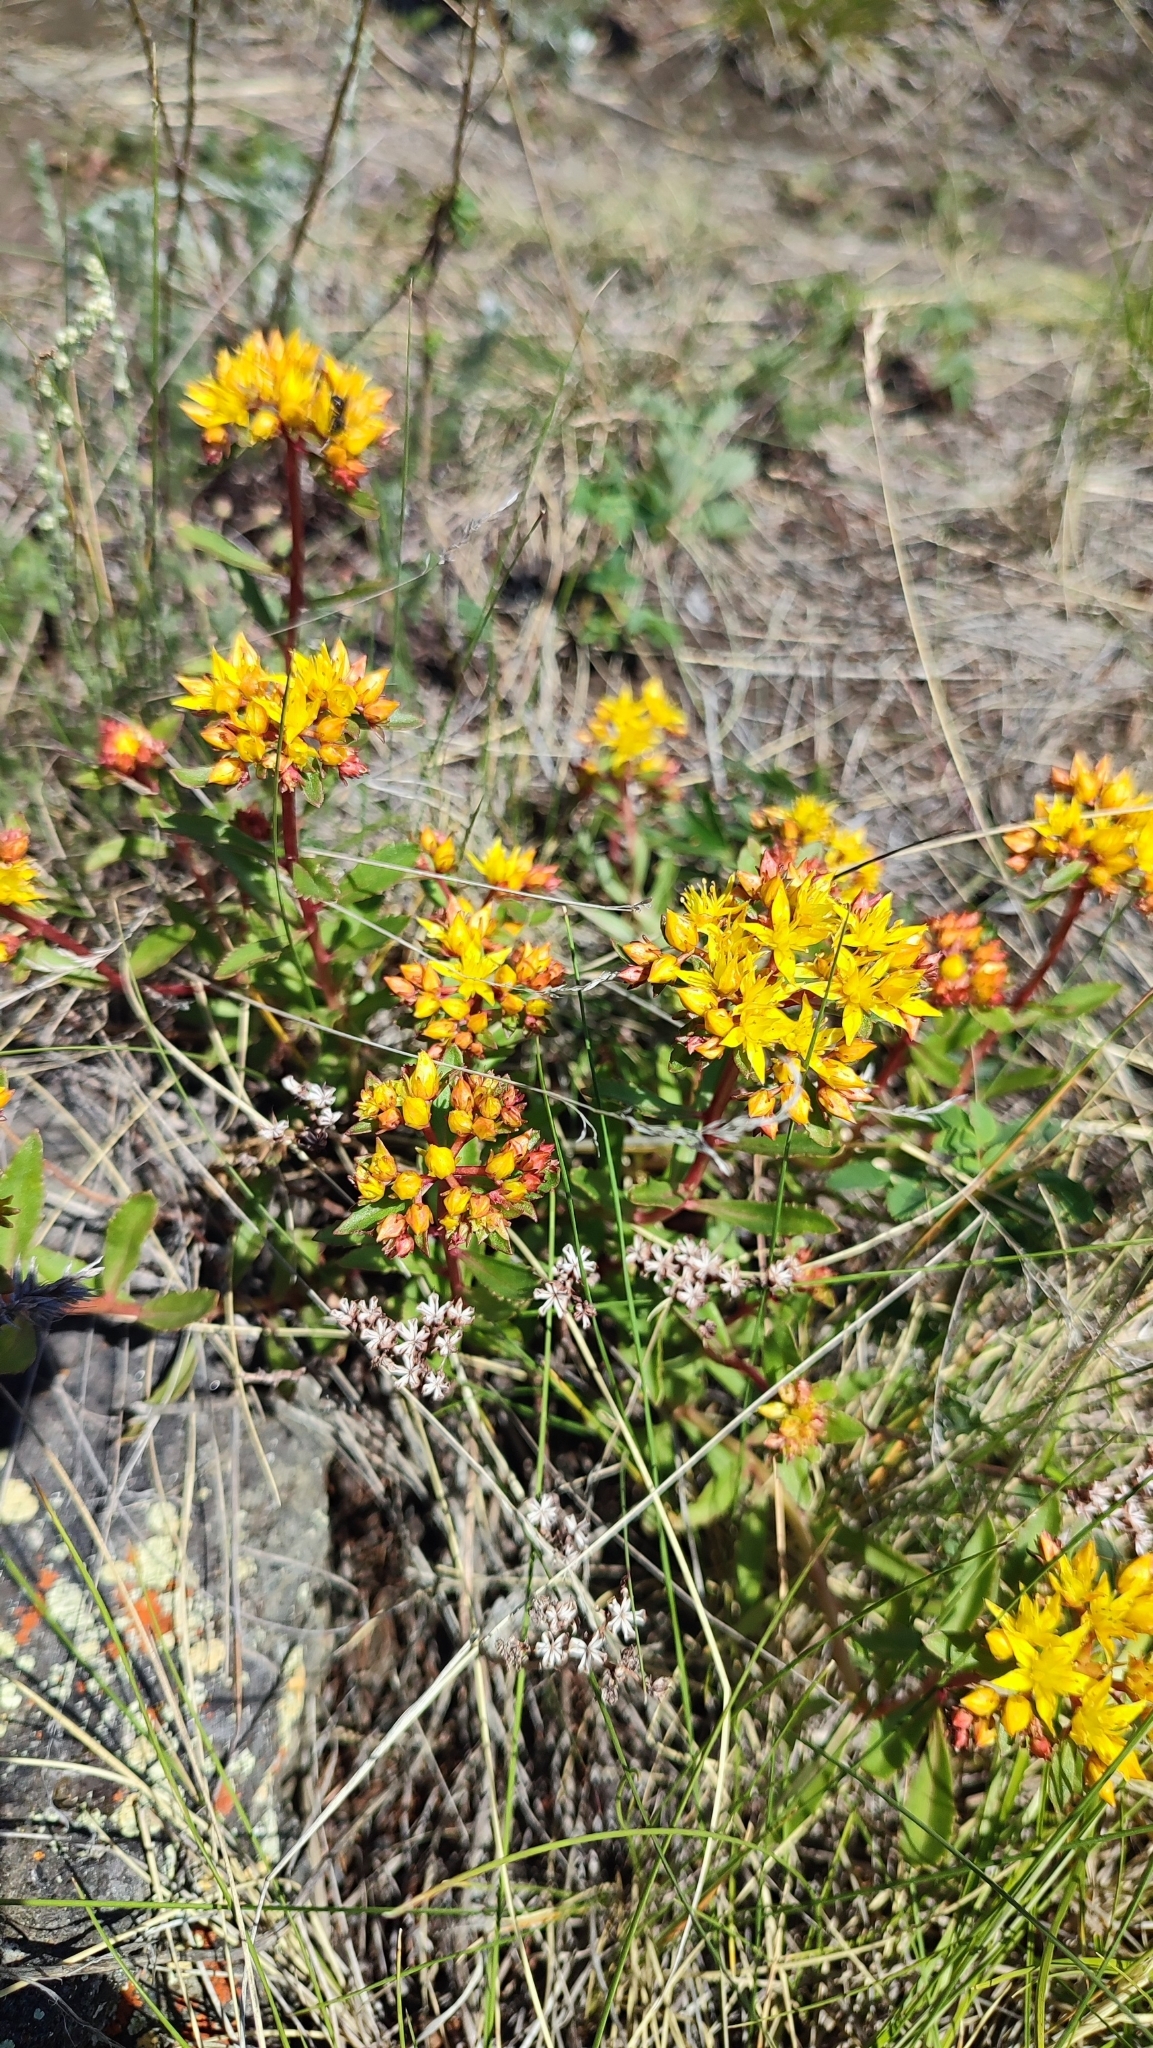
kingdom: Plantae
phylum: Tracheophyta
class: Magnoliopsida
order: Saxifragales
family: Crassulaceae
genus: Phedimus
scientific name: Phedimus aizoon
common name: Orpin aizoon
